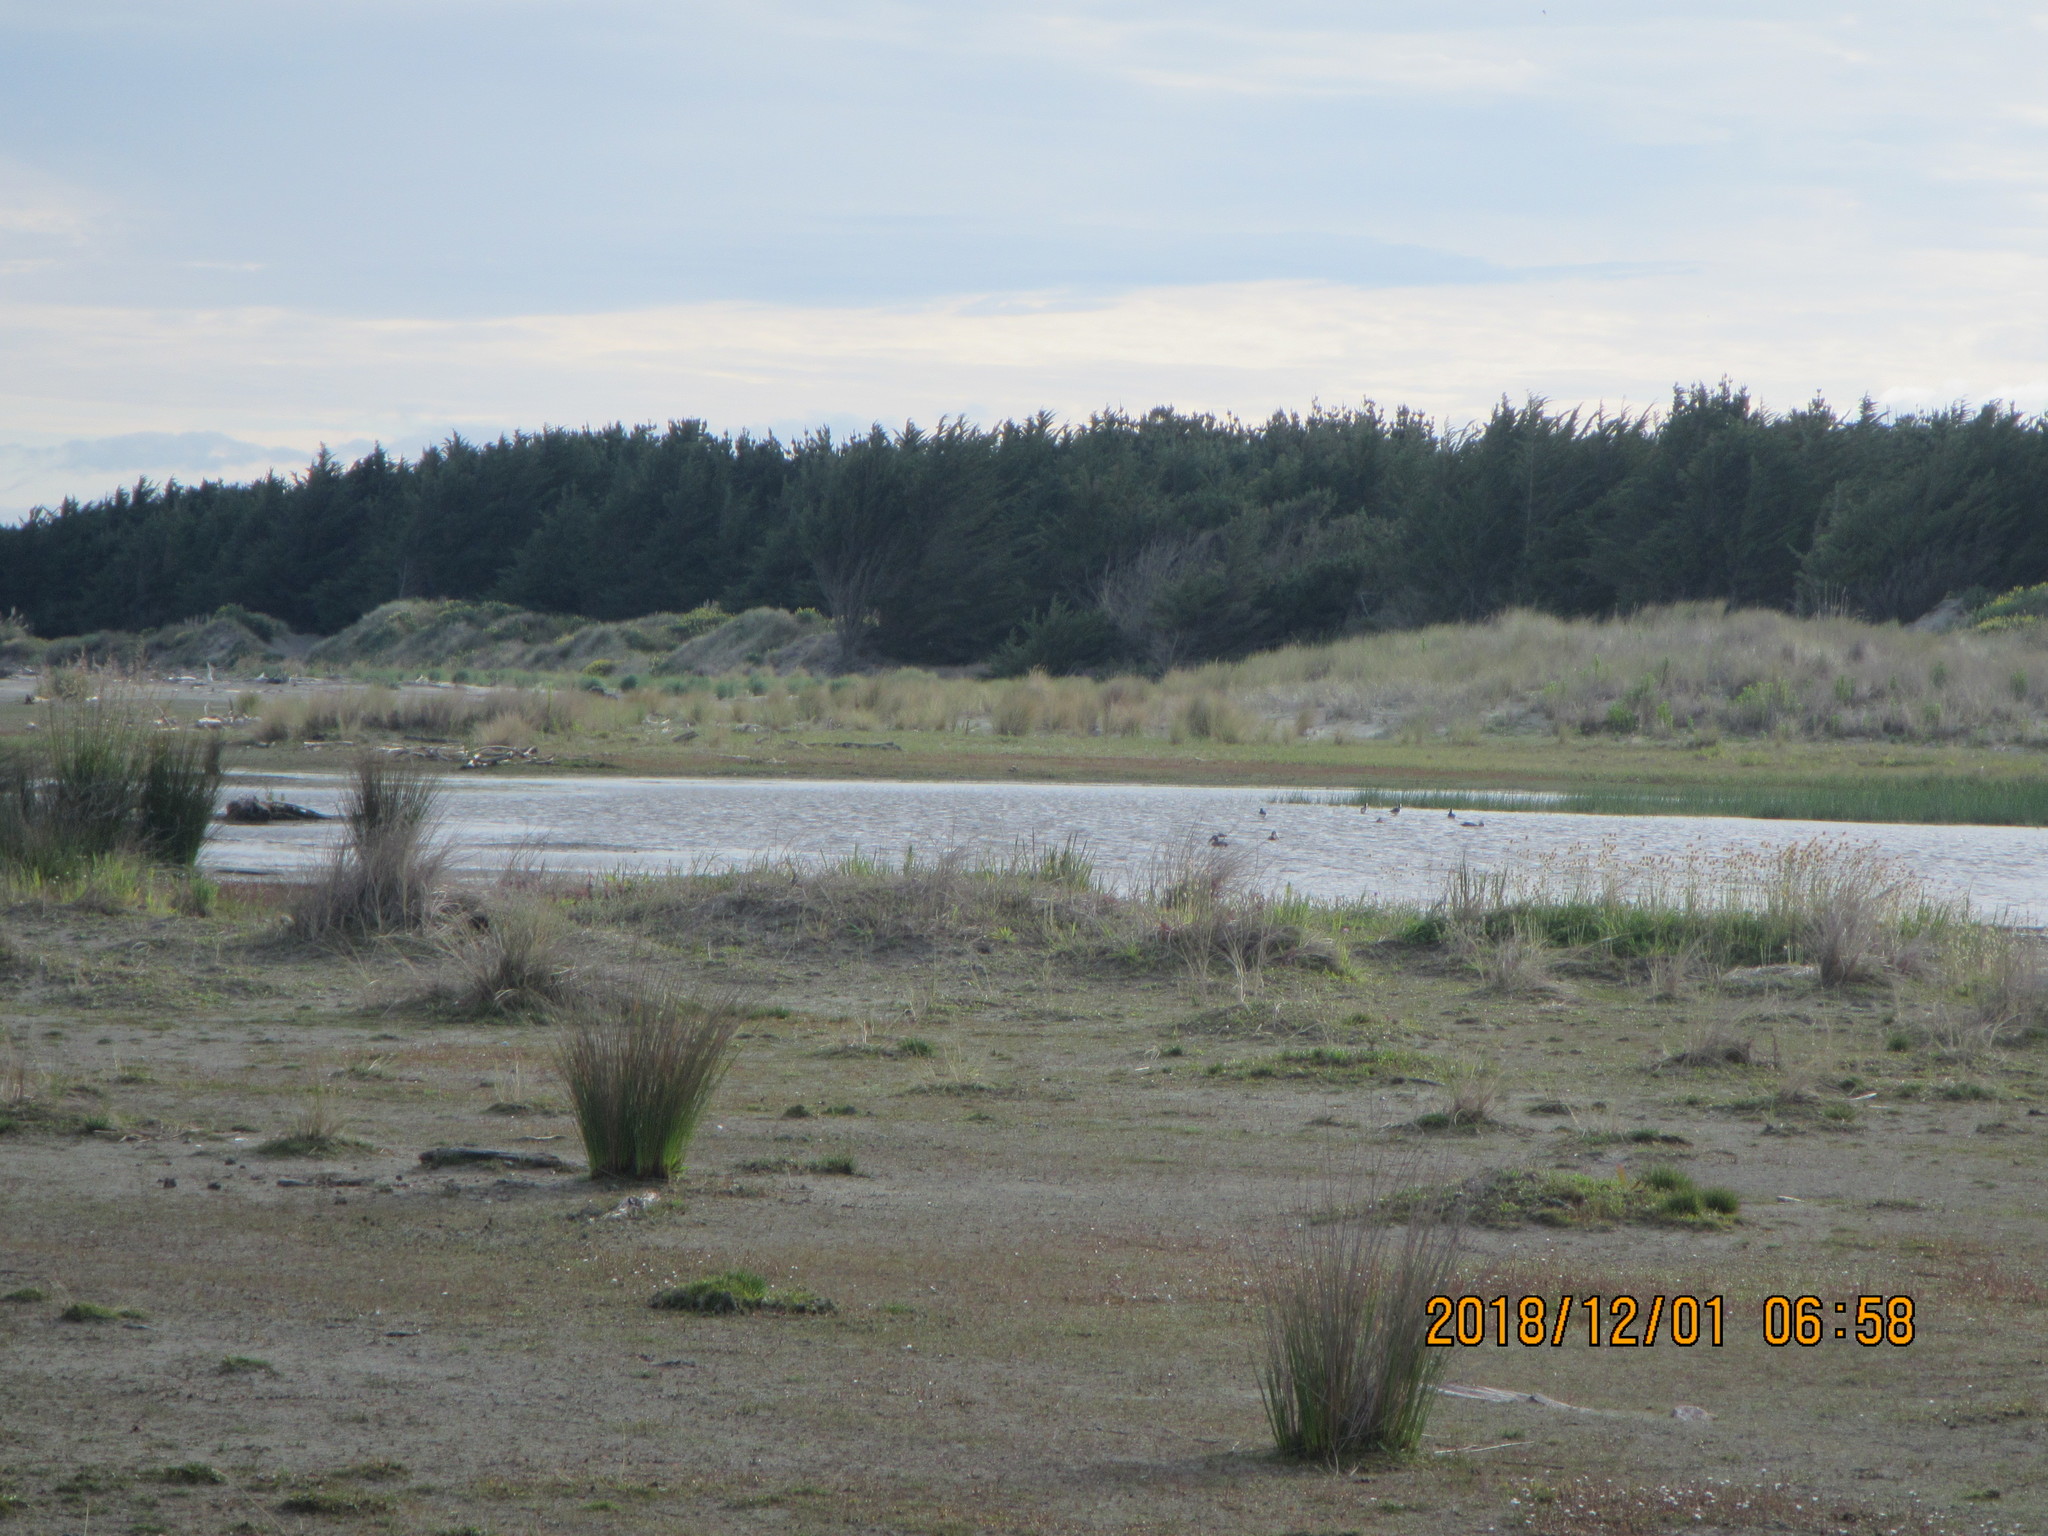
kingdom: Animalia
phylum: Chordata
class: Aves
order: Charadriiformes
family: Recurvirostridae
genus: Himantopus
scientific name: Himantopus leucocephalus
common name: White-headed stilt
